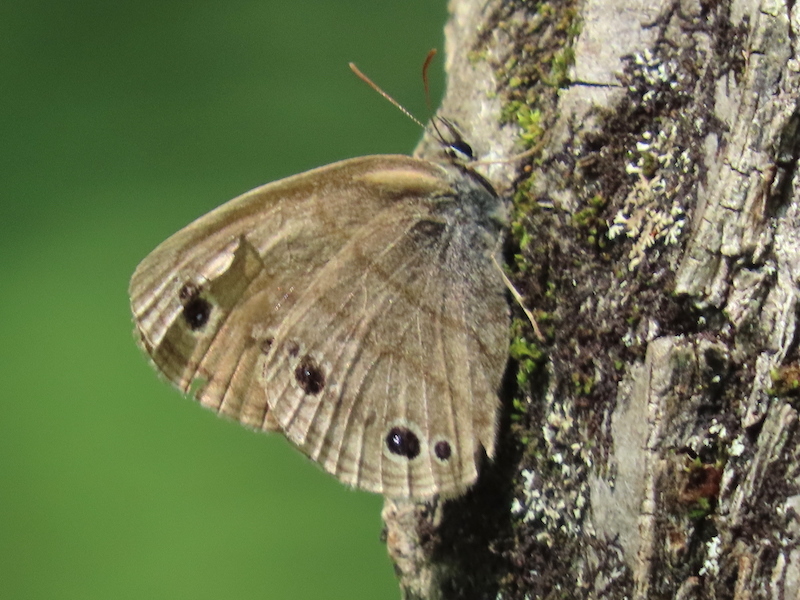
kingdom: Animalia
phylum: Arthropoda
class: Insecta
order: Lepidoptera
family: Nymphalidae
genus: Euptychia
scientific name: Euptychia cymela
